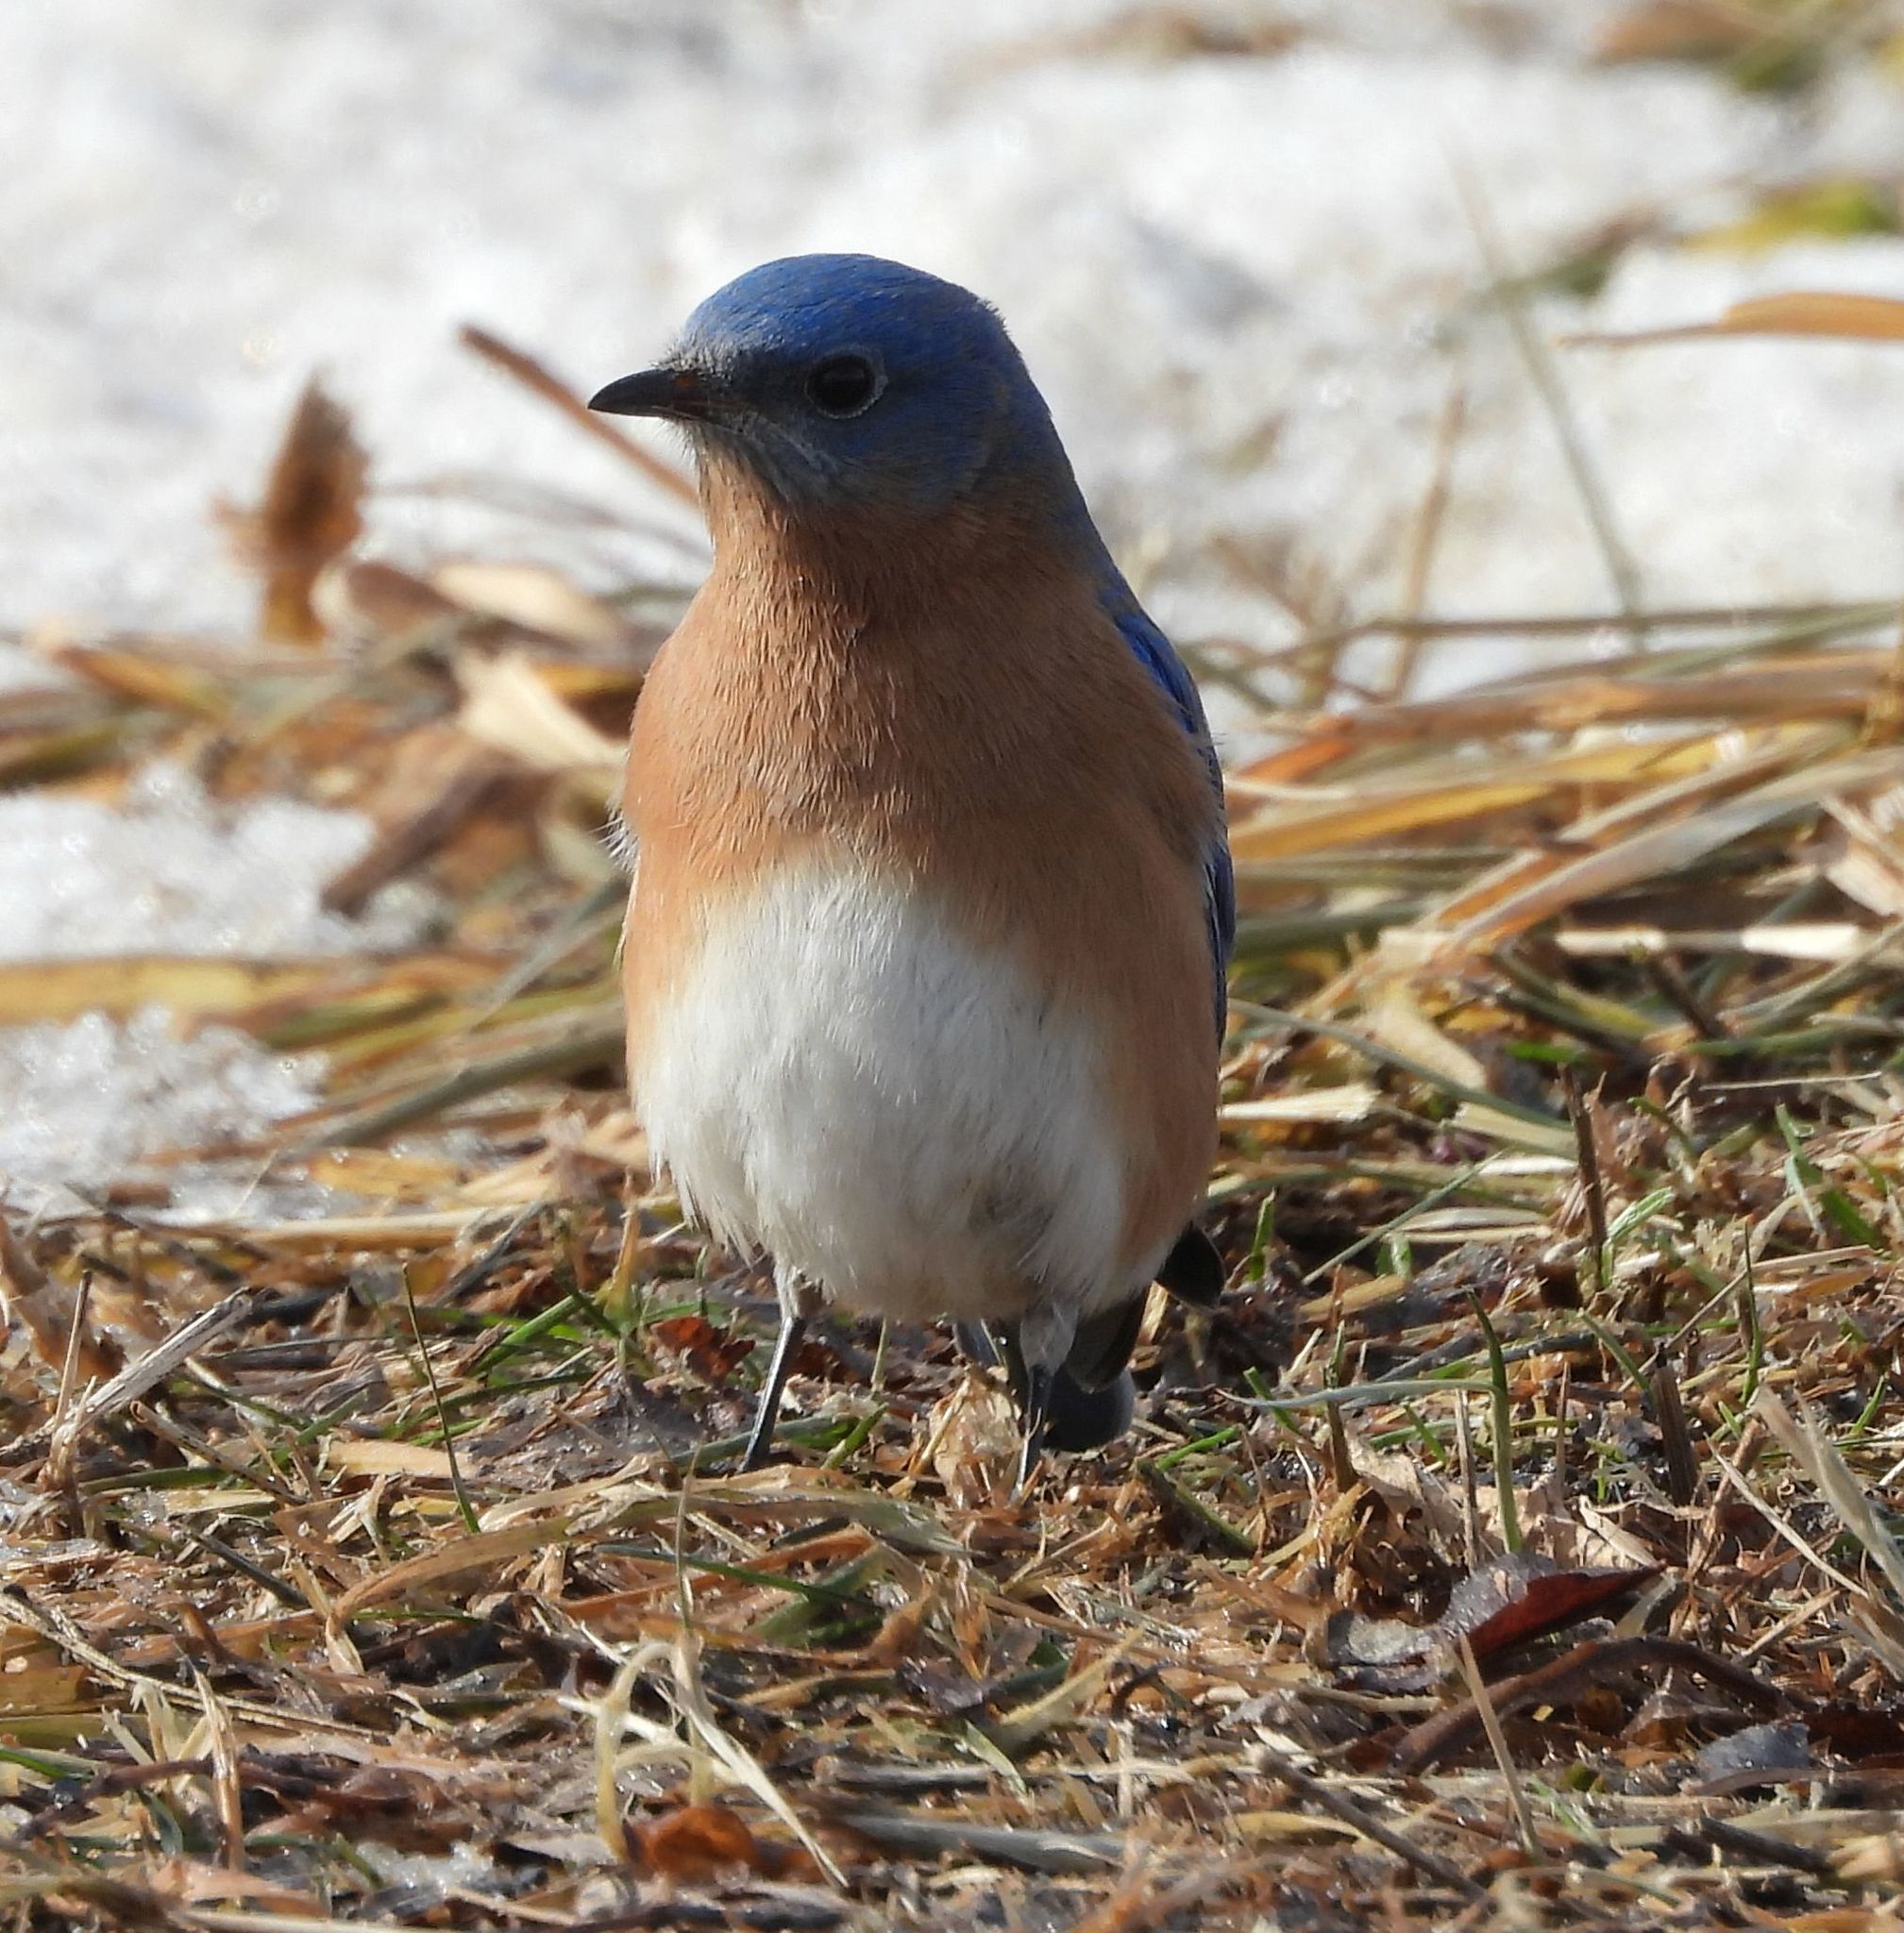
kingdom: Animalia
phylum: Chordata
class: Aves
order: Passeriformes
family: Turdidae
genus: Sialia
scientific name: Sialia sialis
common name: Eastern bluebird
